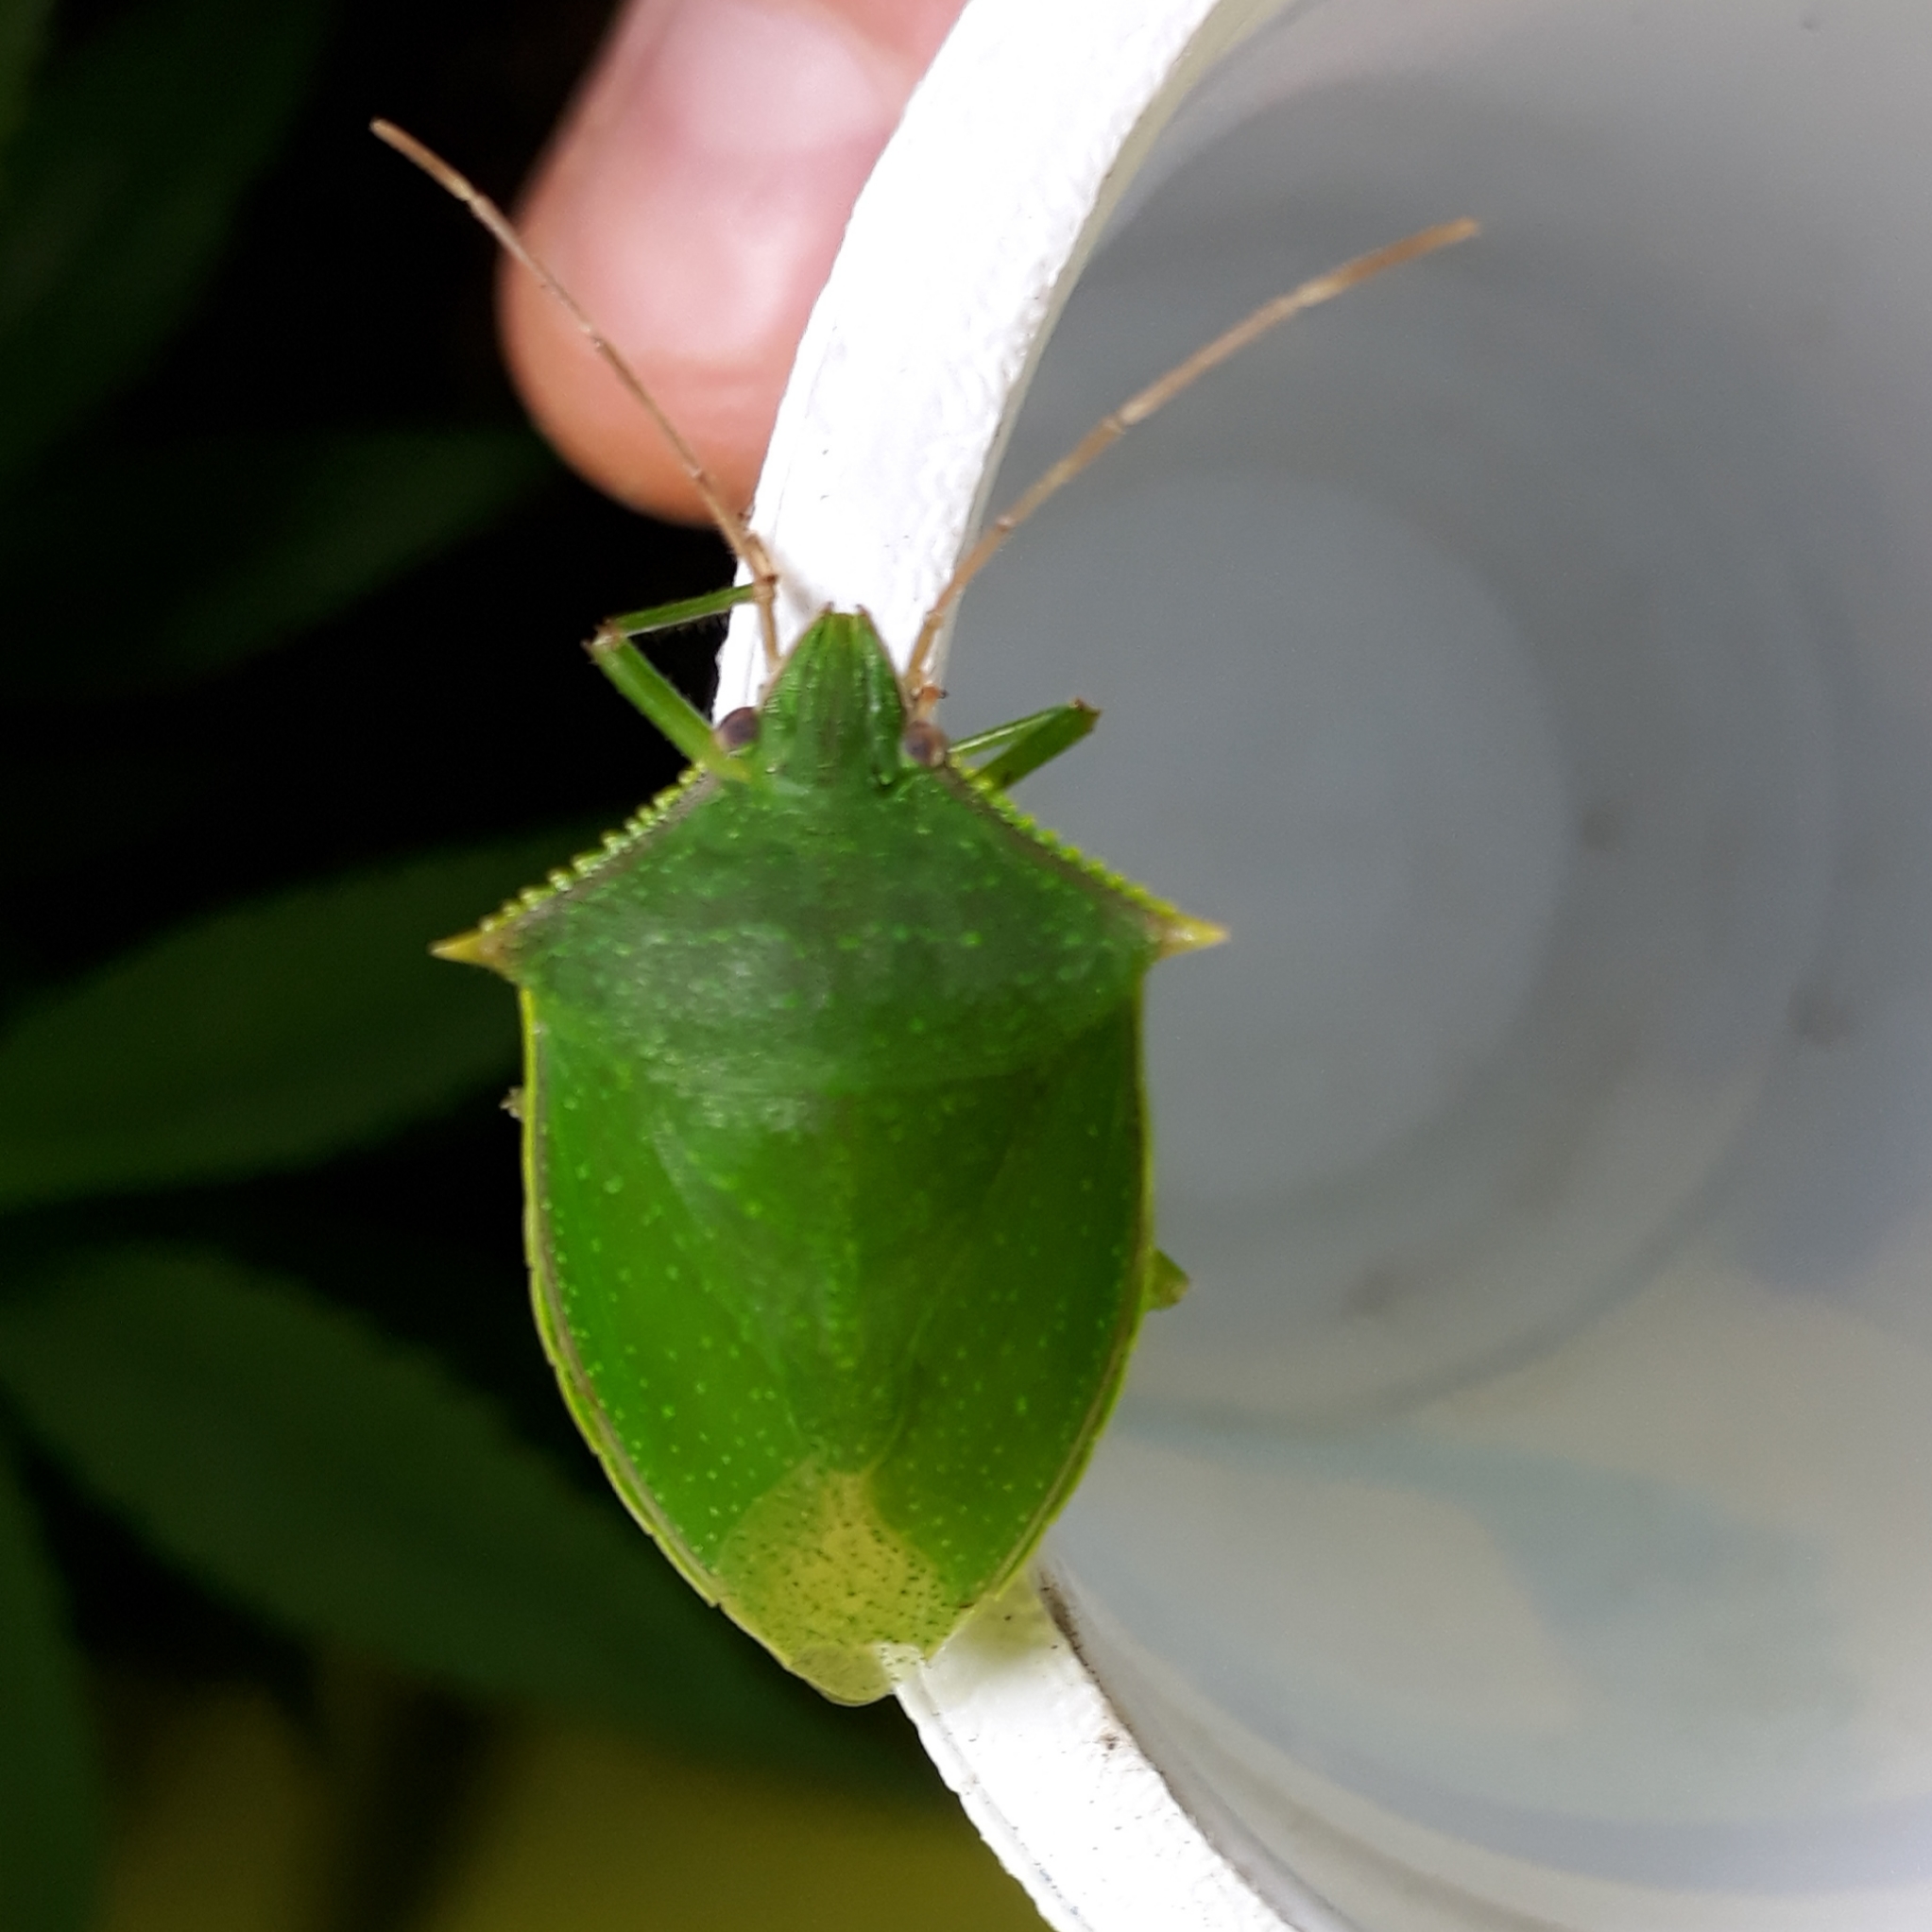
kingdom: Animalia
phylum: Arthropoda
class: Insecta
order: Hemiptera
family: Pentatomidae
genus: Loxa
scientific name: Loxa virescens
